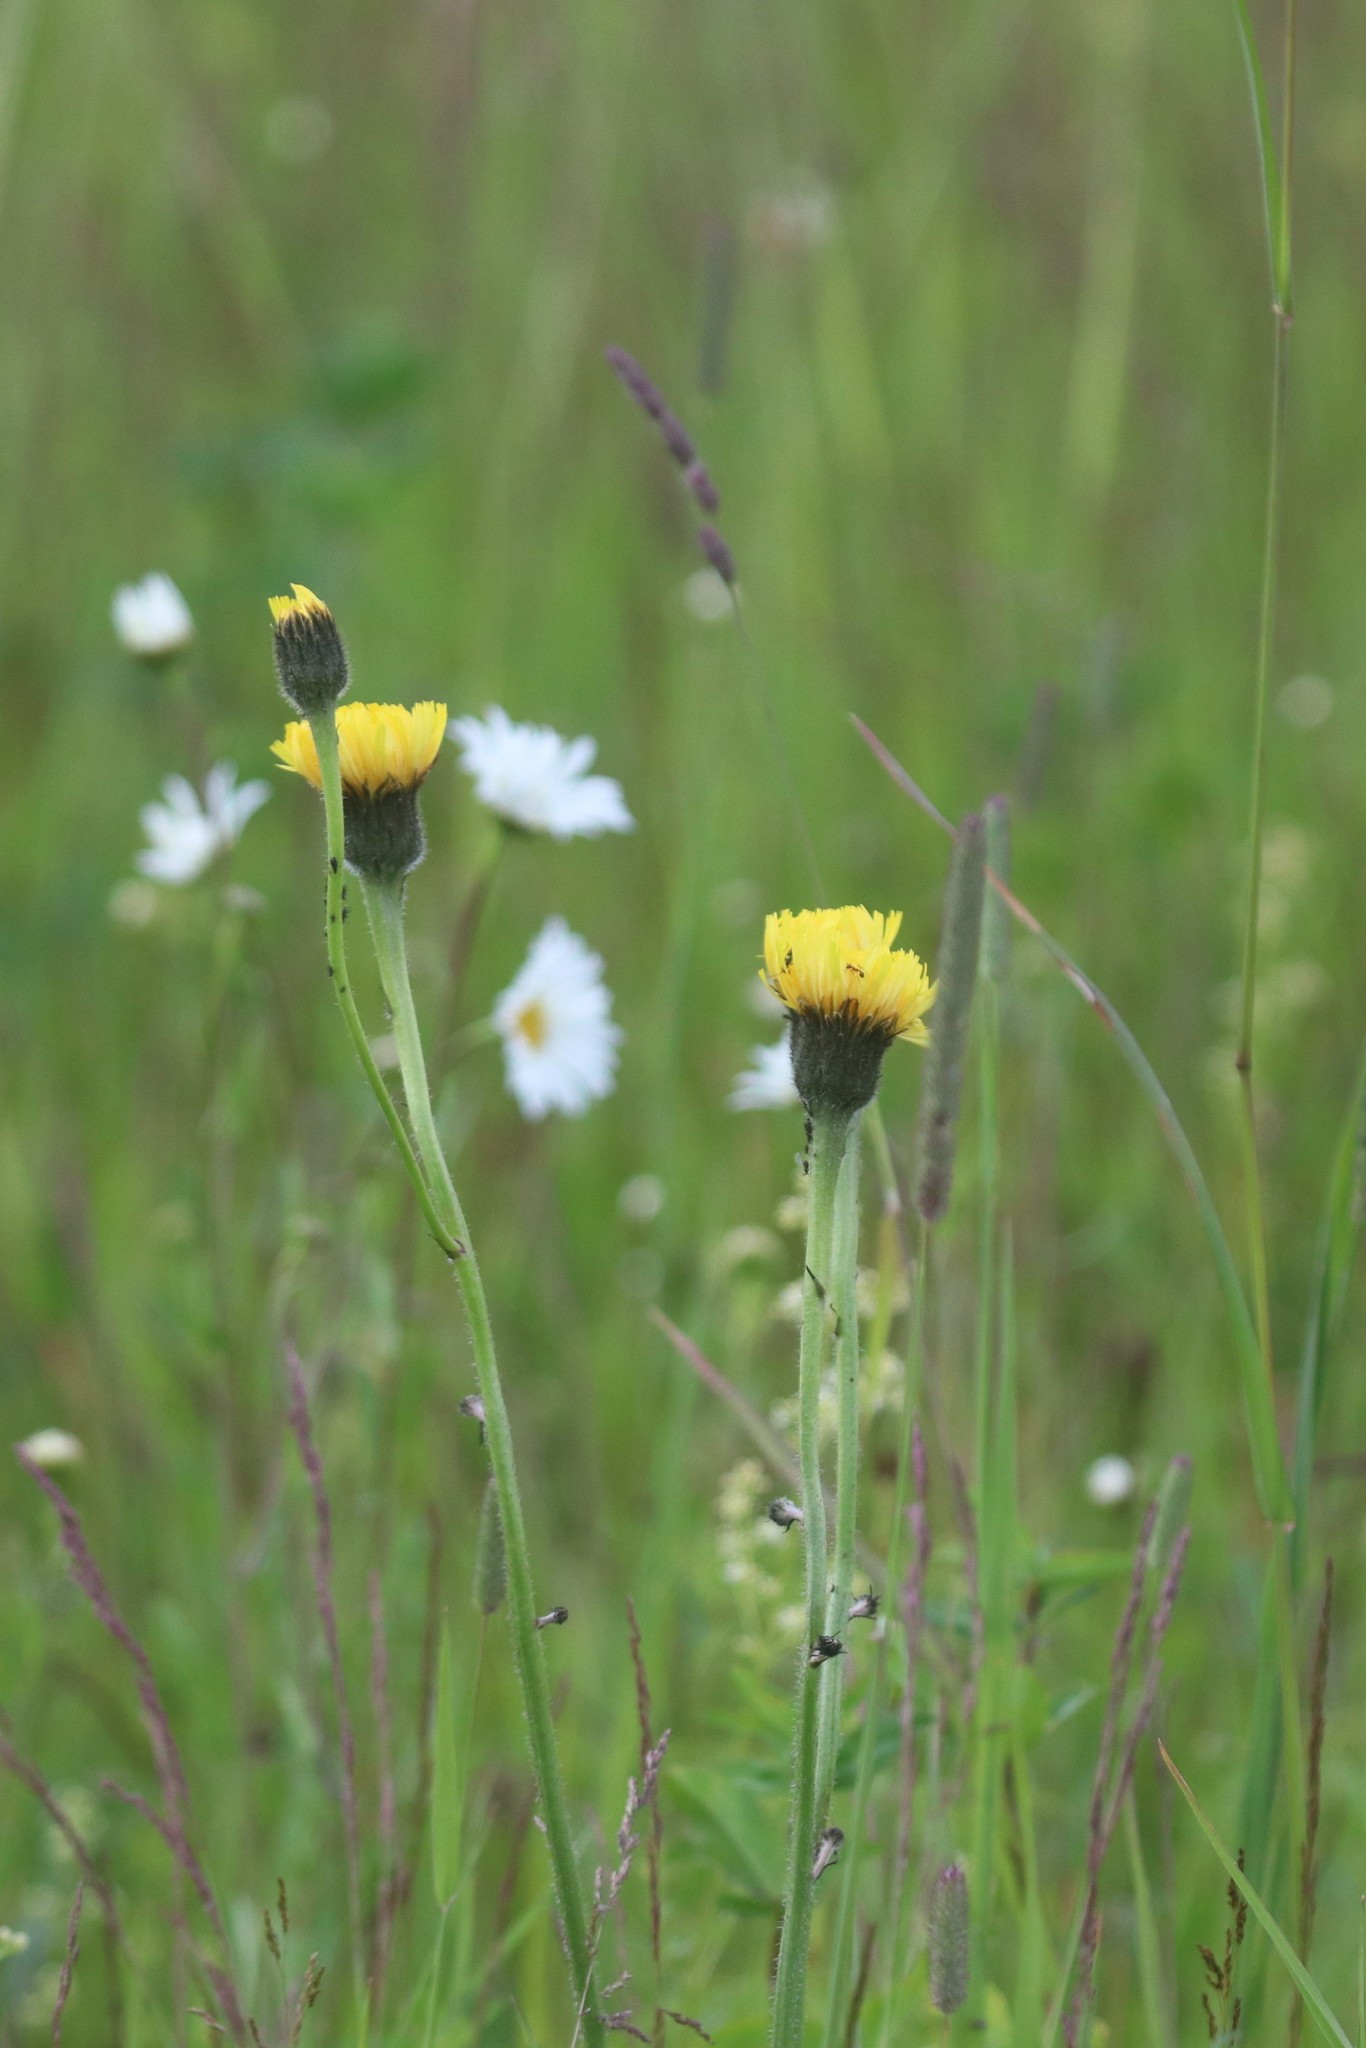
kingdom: Plantae
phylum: Tracheophyta
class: Magnoliopsida
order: Asterales
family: Asteraceae
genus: Trommsdorffia
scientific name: Trommsdorffia maculata
